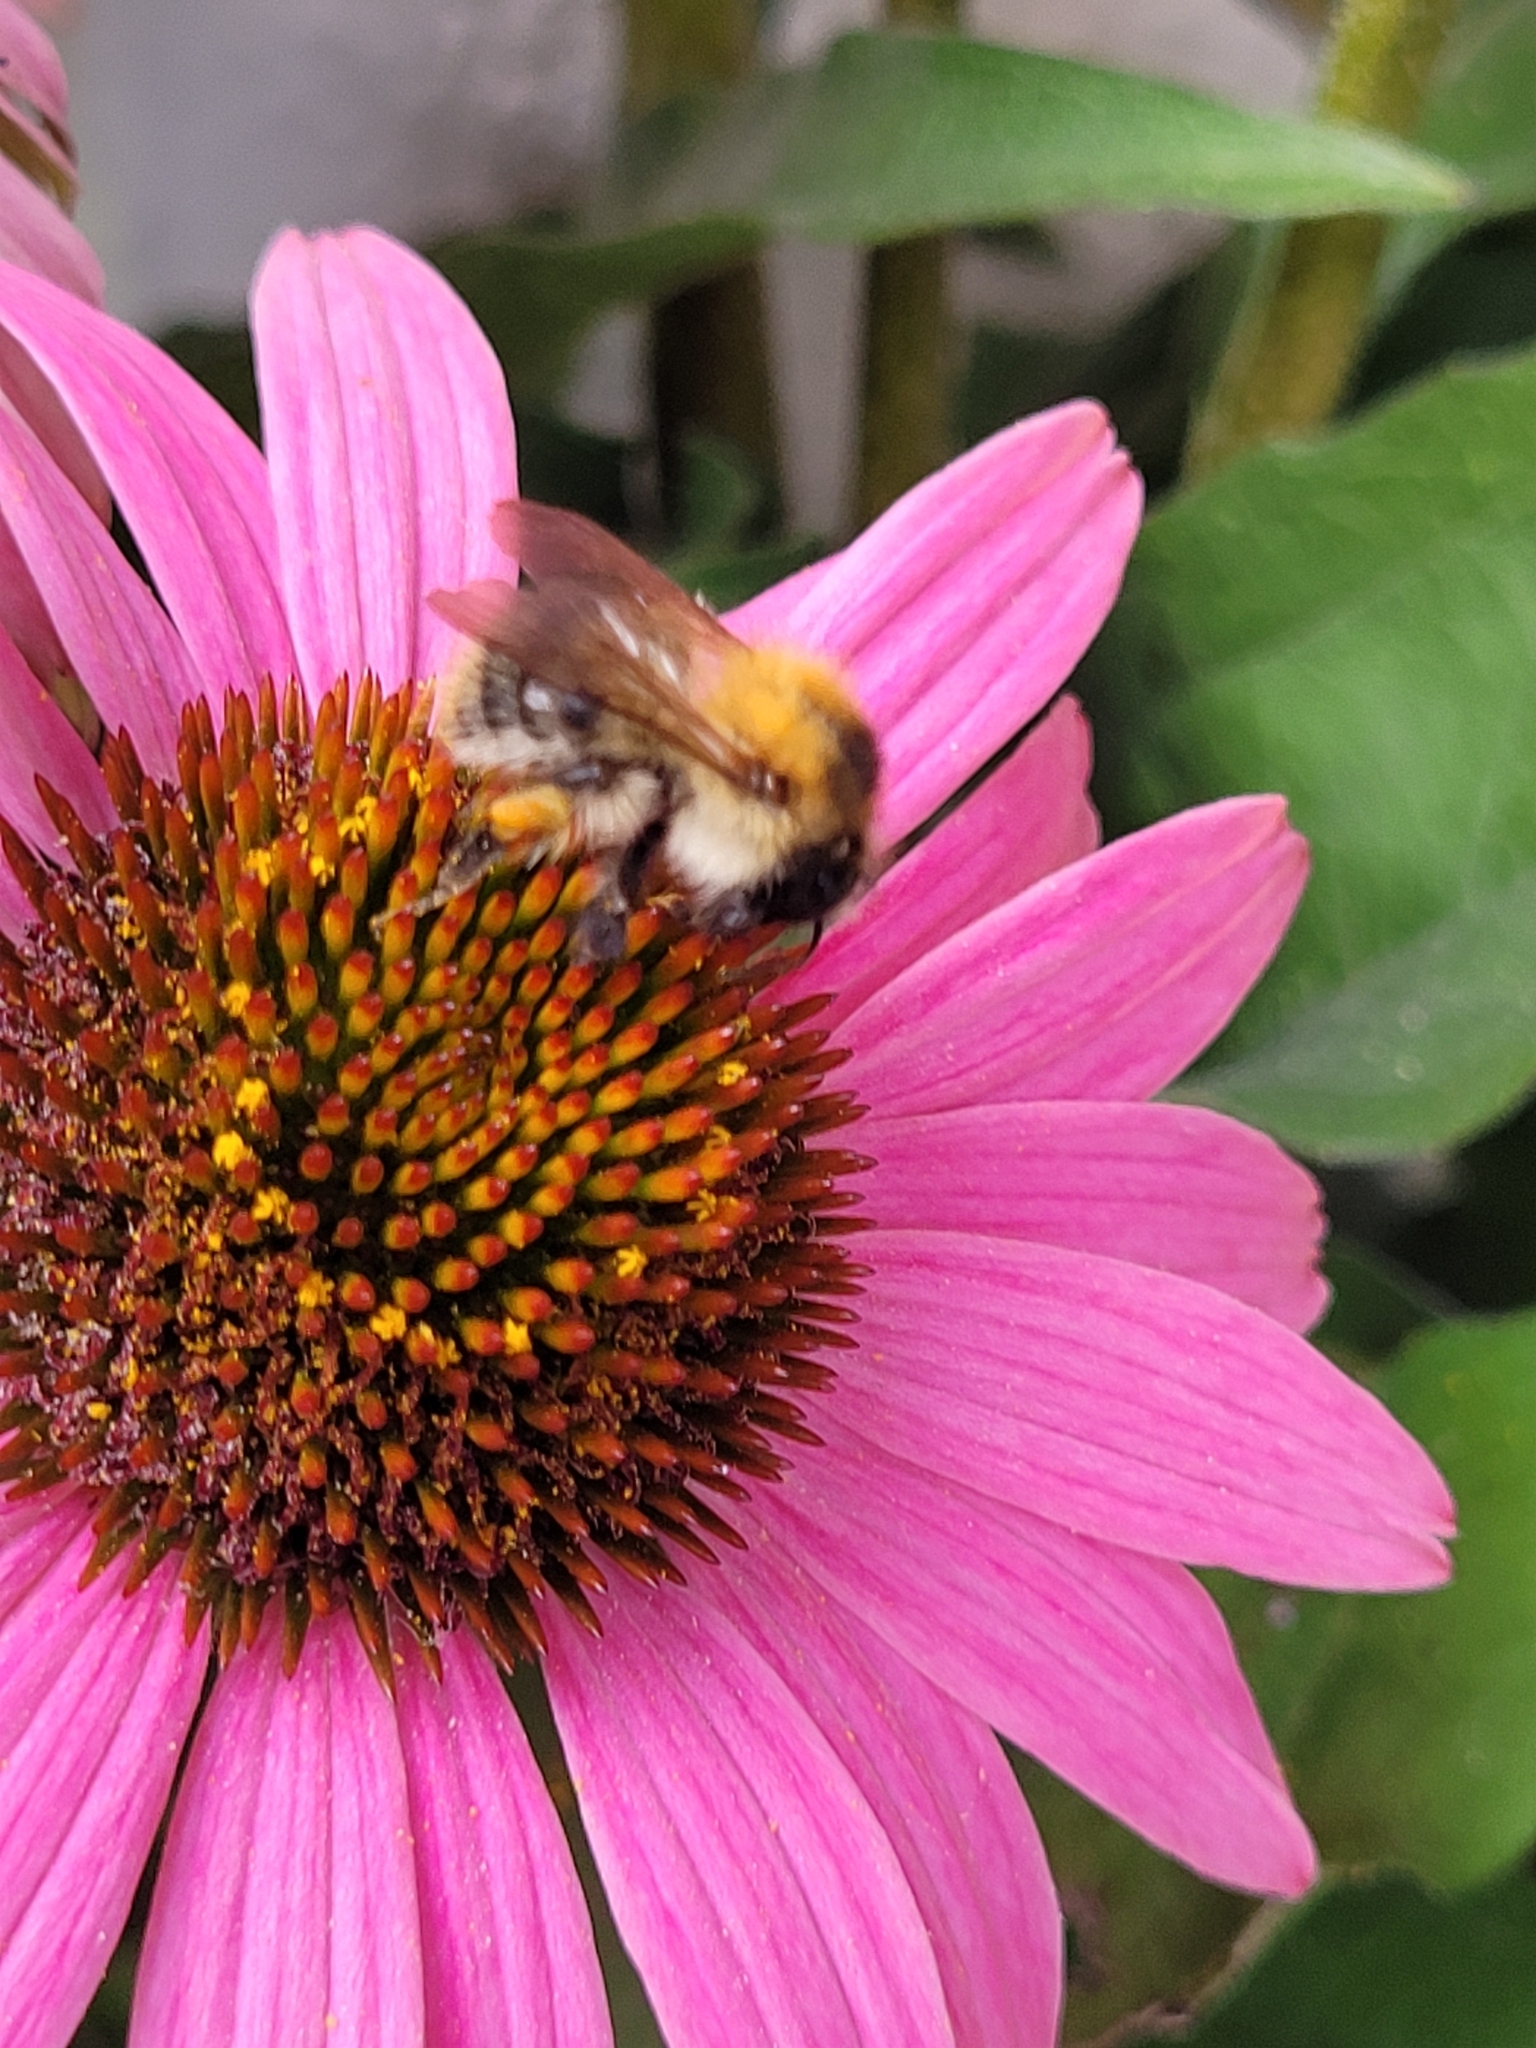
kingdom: Animalia
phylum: Arthropoda
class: Insecta
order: Hymenoptera
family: Apidae
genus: Bombus
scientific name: Bombus pascuorum
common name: Common carder bee
